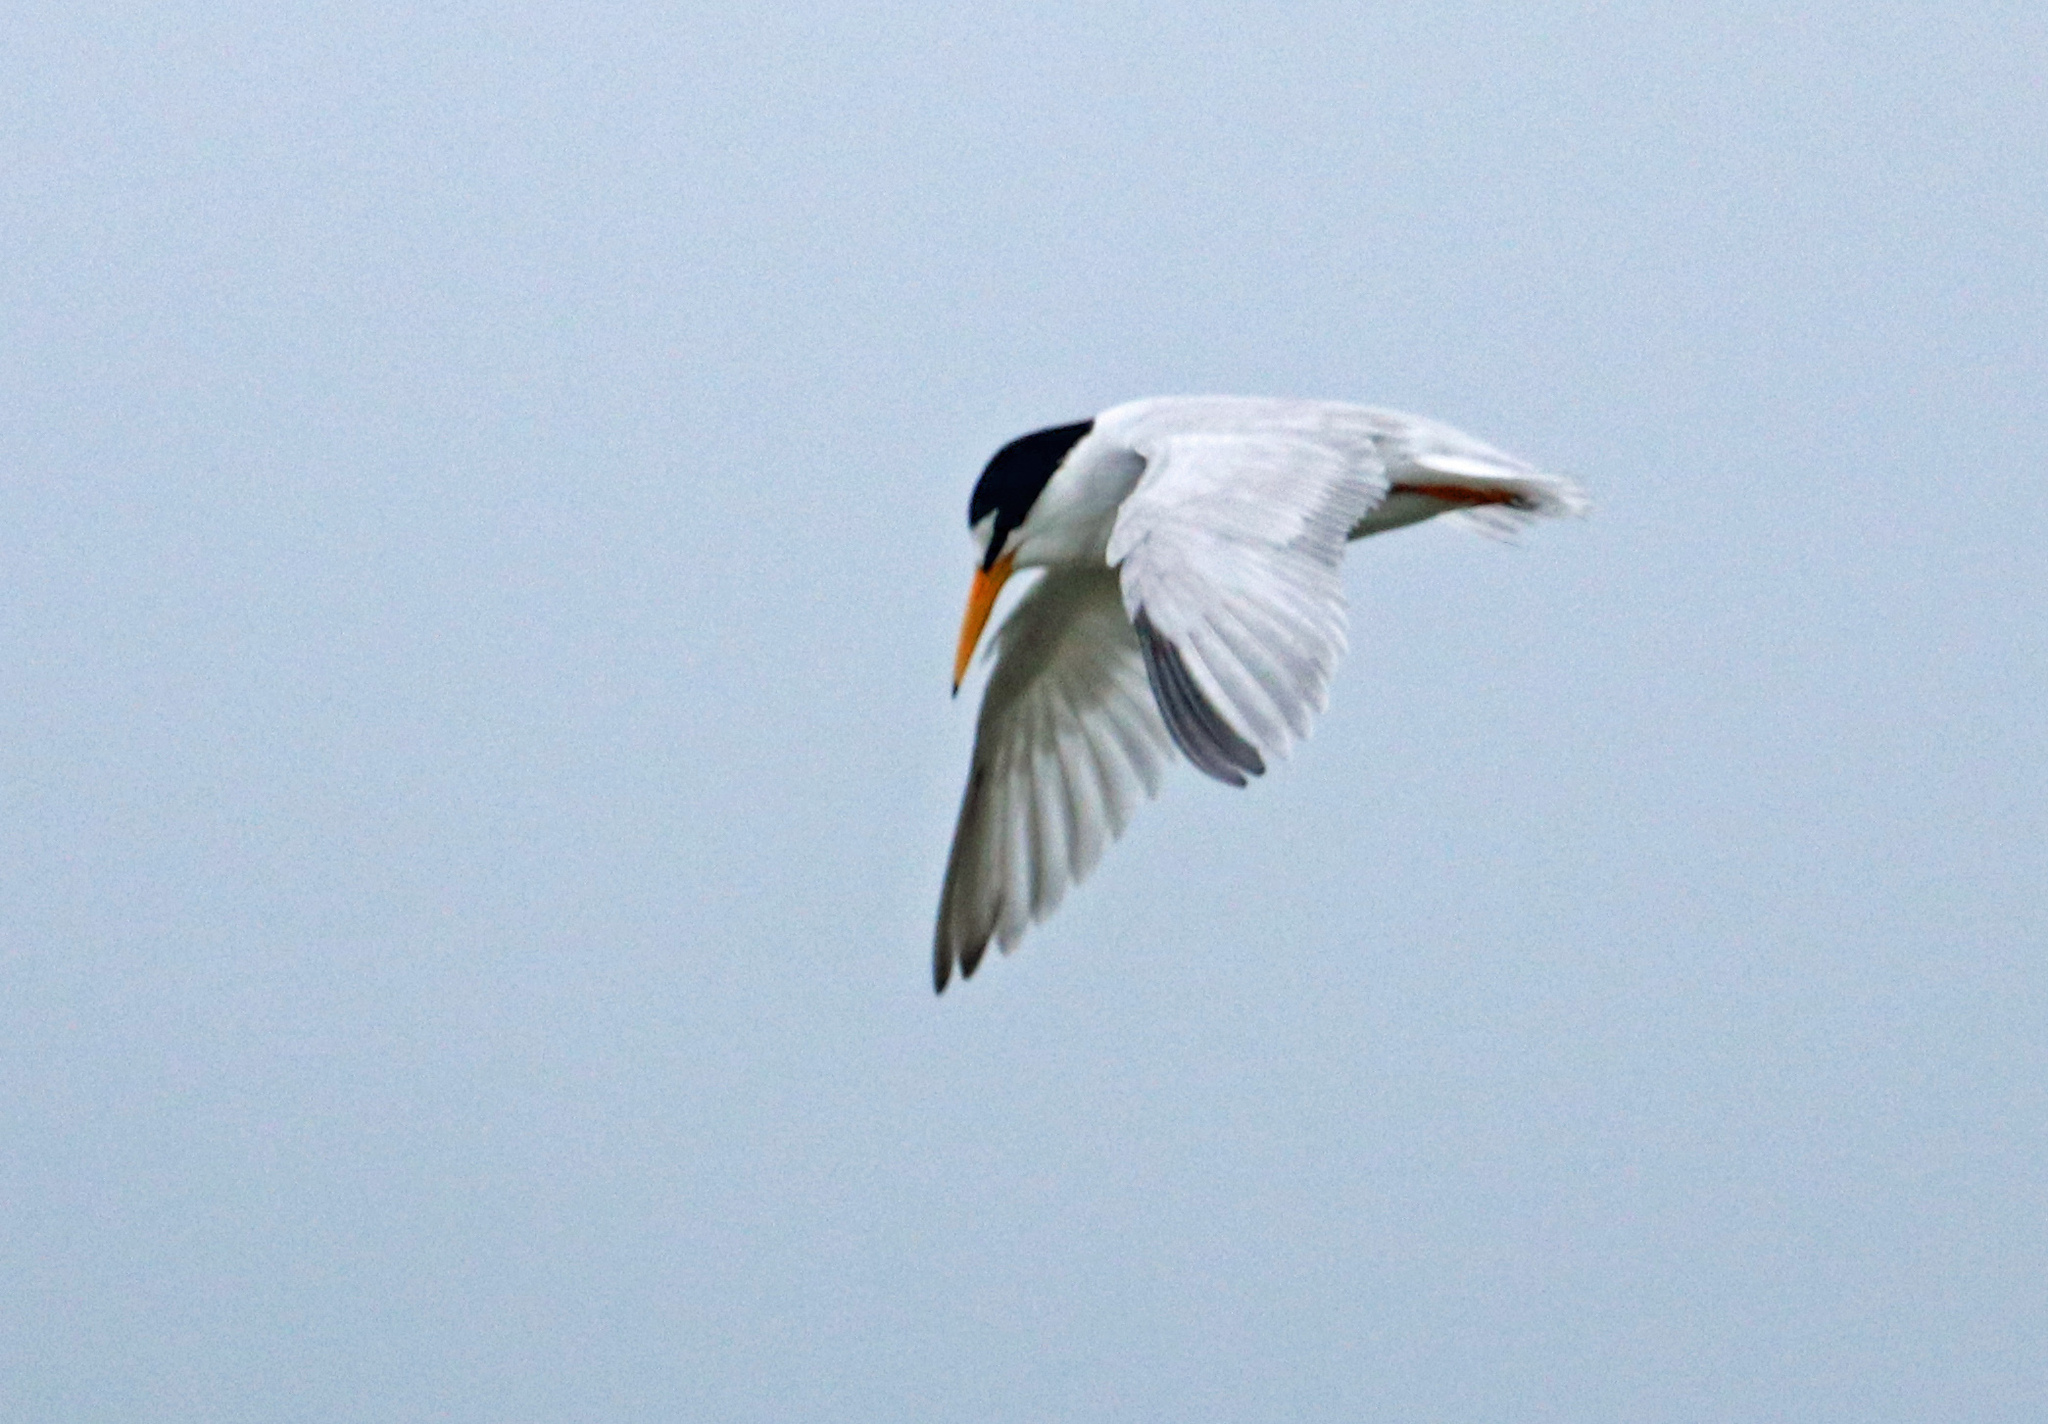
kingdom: Animalia
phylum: Chordata
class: Aves
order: Charadriiformes
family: Laridae
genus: Sternula
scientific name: Sternula antillarum
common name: Least tern
